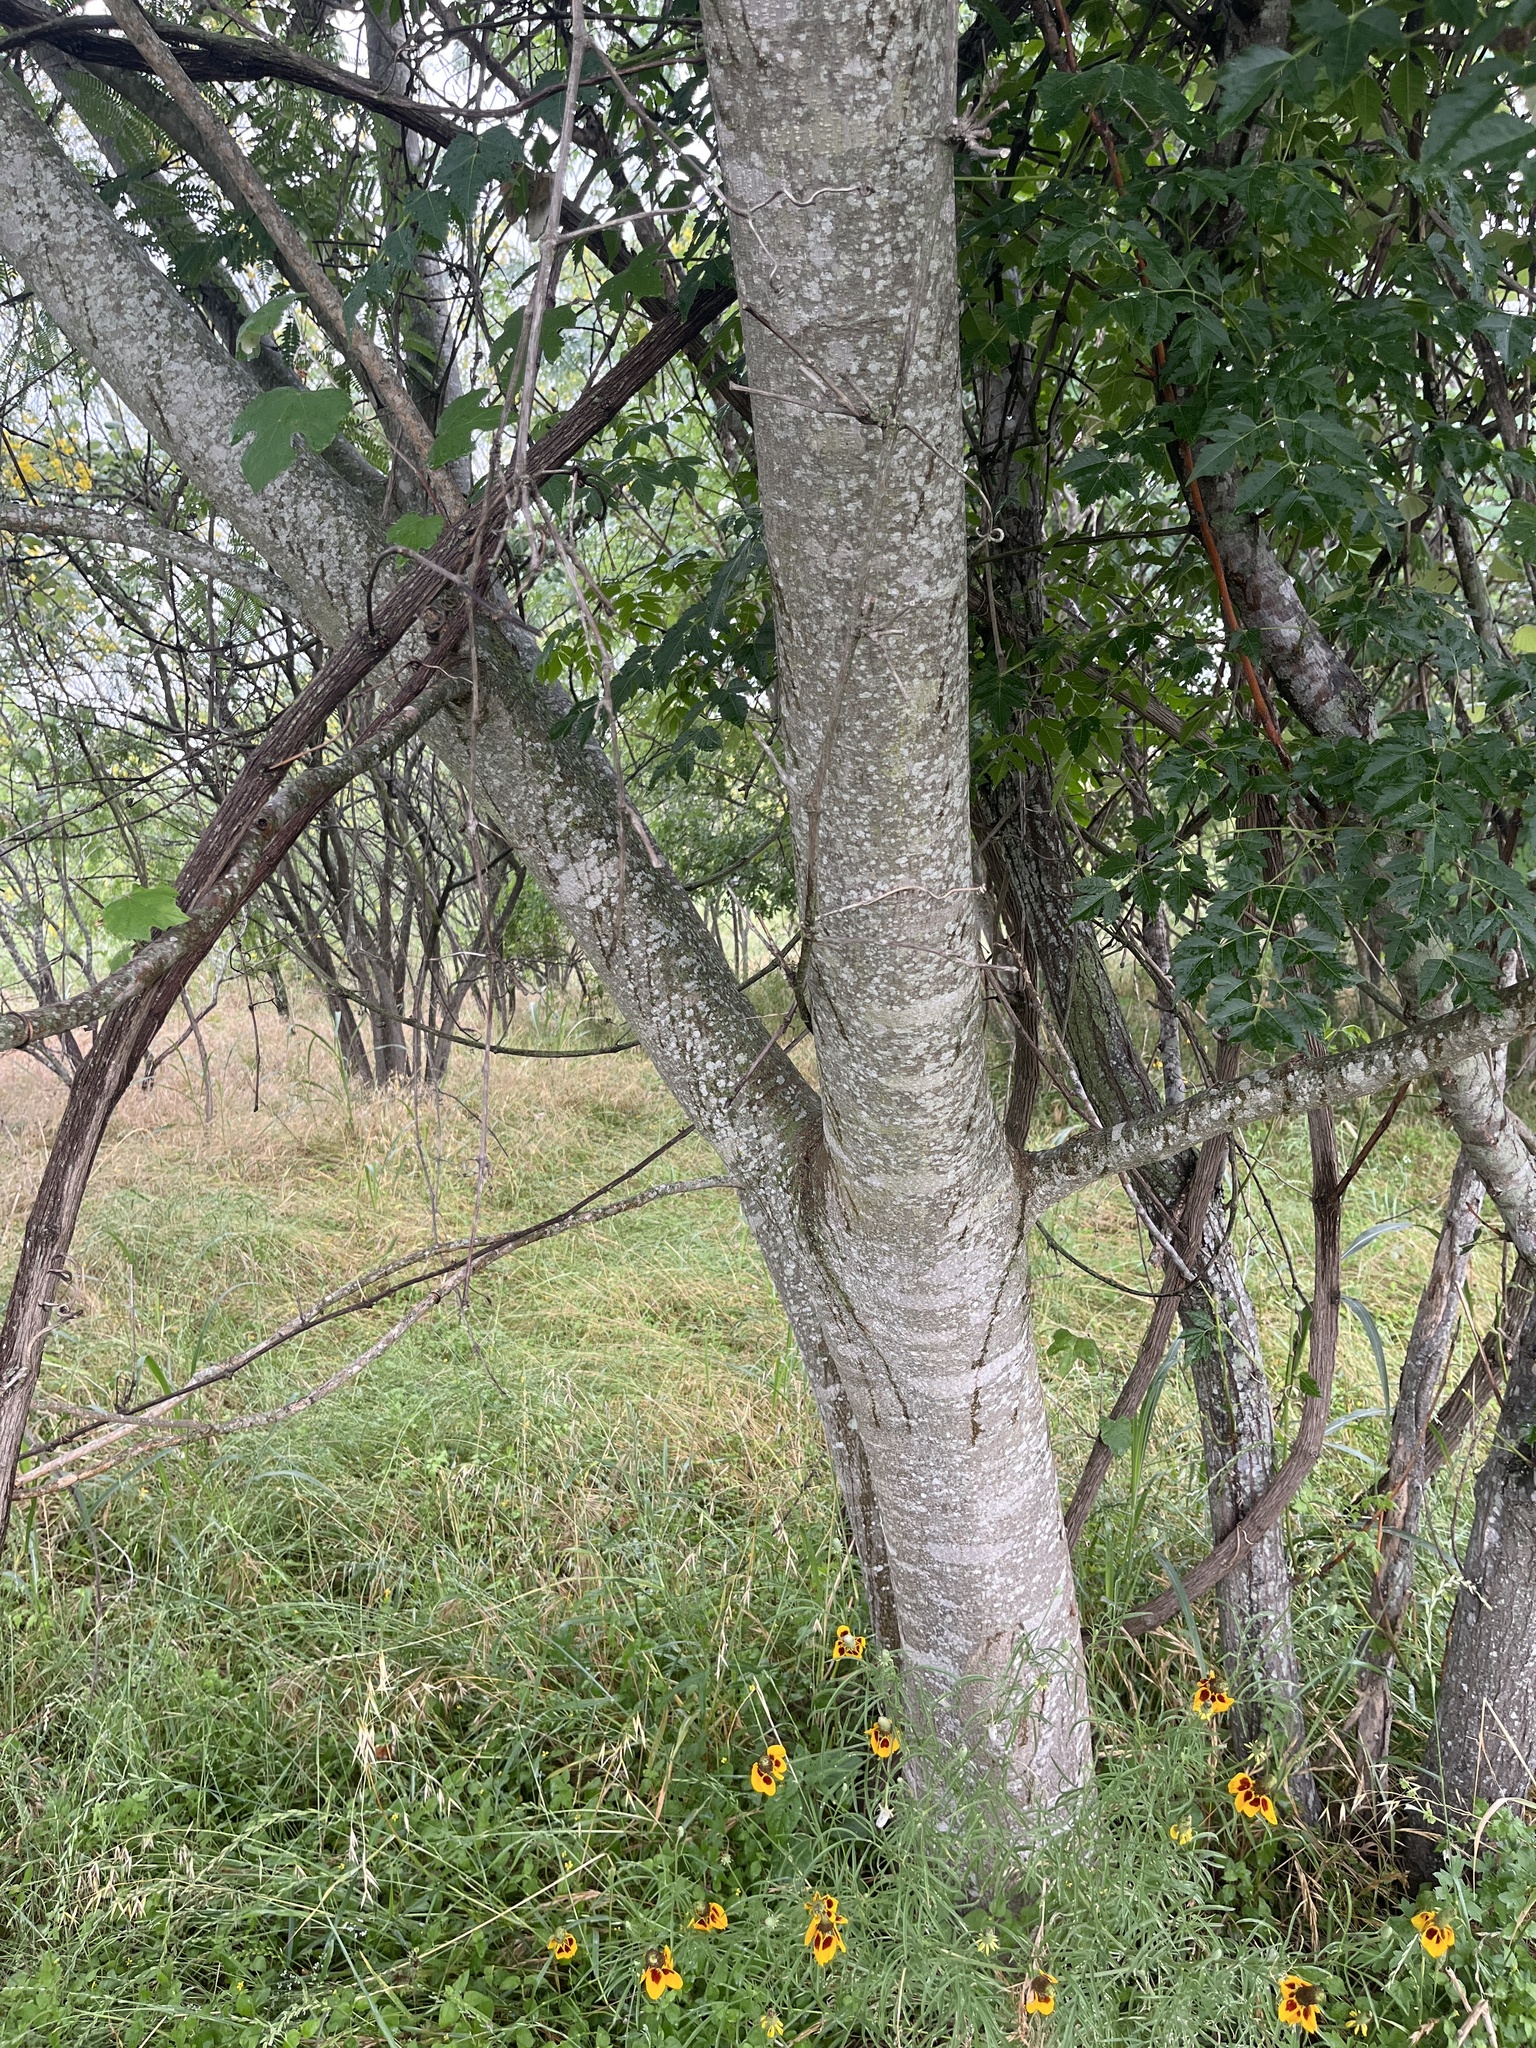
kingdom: Plantae
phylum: Tracheophyta
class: Magnoliopsida
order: Fabales
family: Fabaceae
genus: Albizia
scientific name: Albizia julibrissin
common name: Silktree
